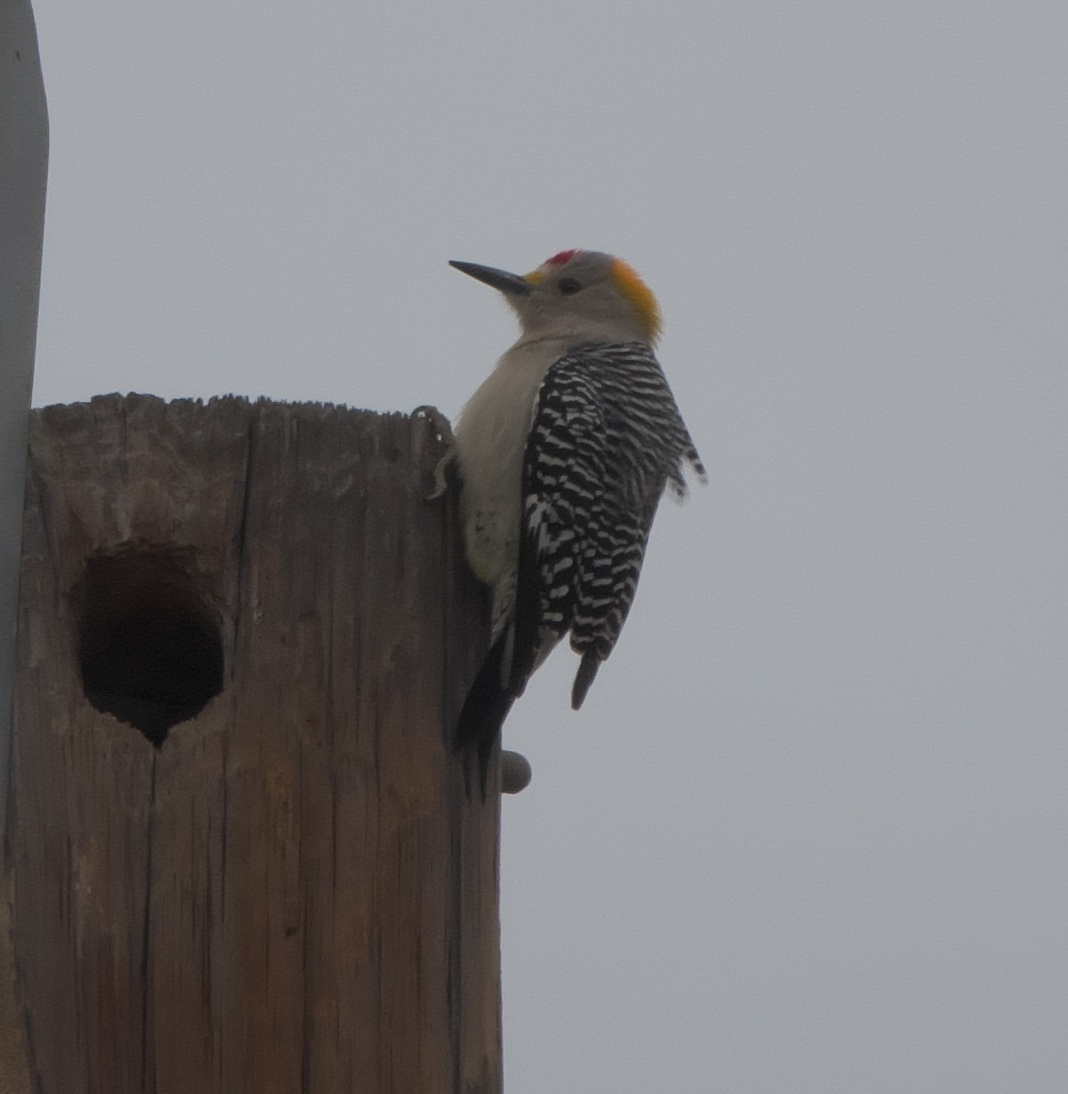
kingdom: Animalia
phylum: Chordata
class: Aves
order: Piciformes
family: Picidae
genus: Melanerpes
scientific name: Melanerpes aurifrons
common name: Golden-fronted woodpecker
